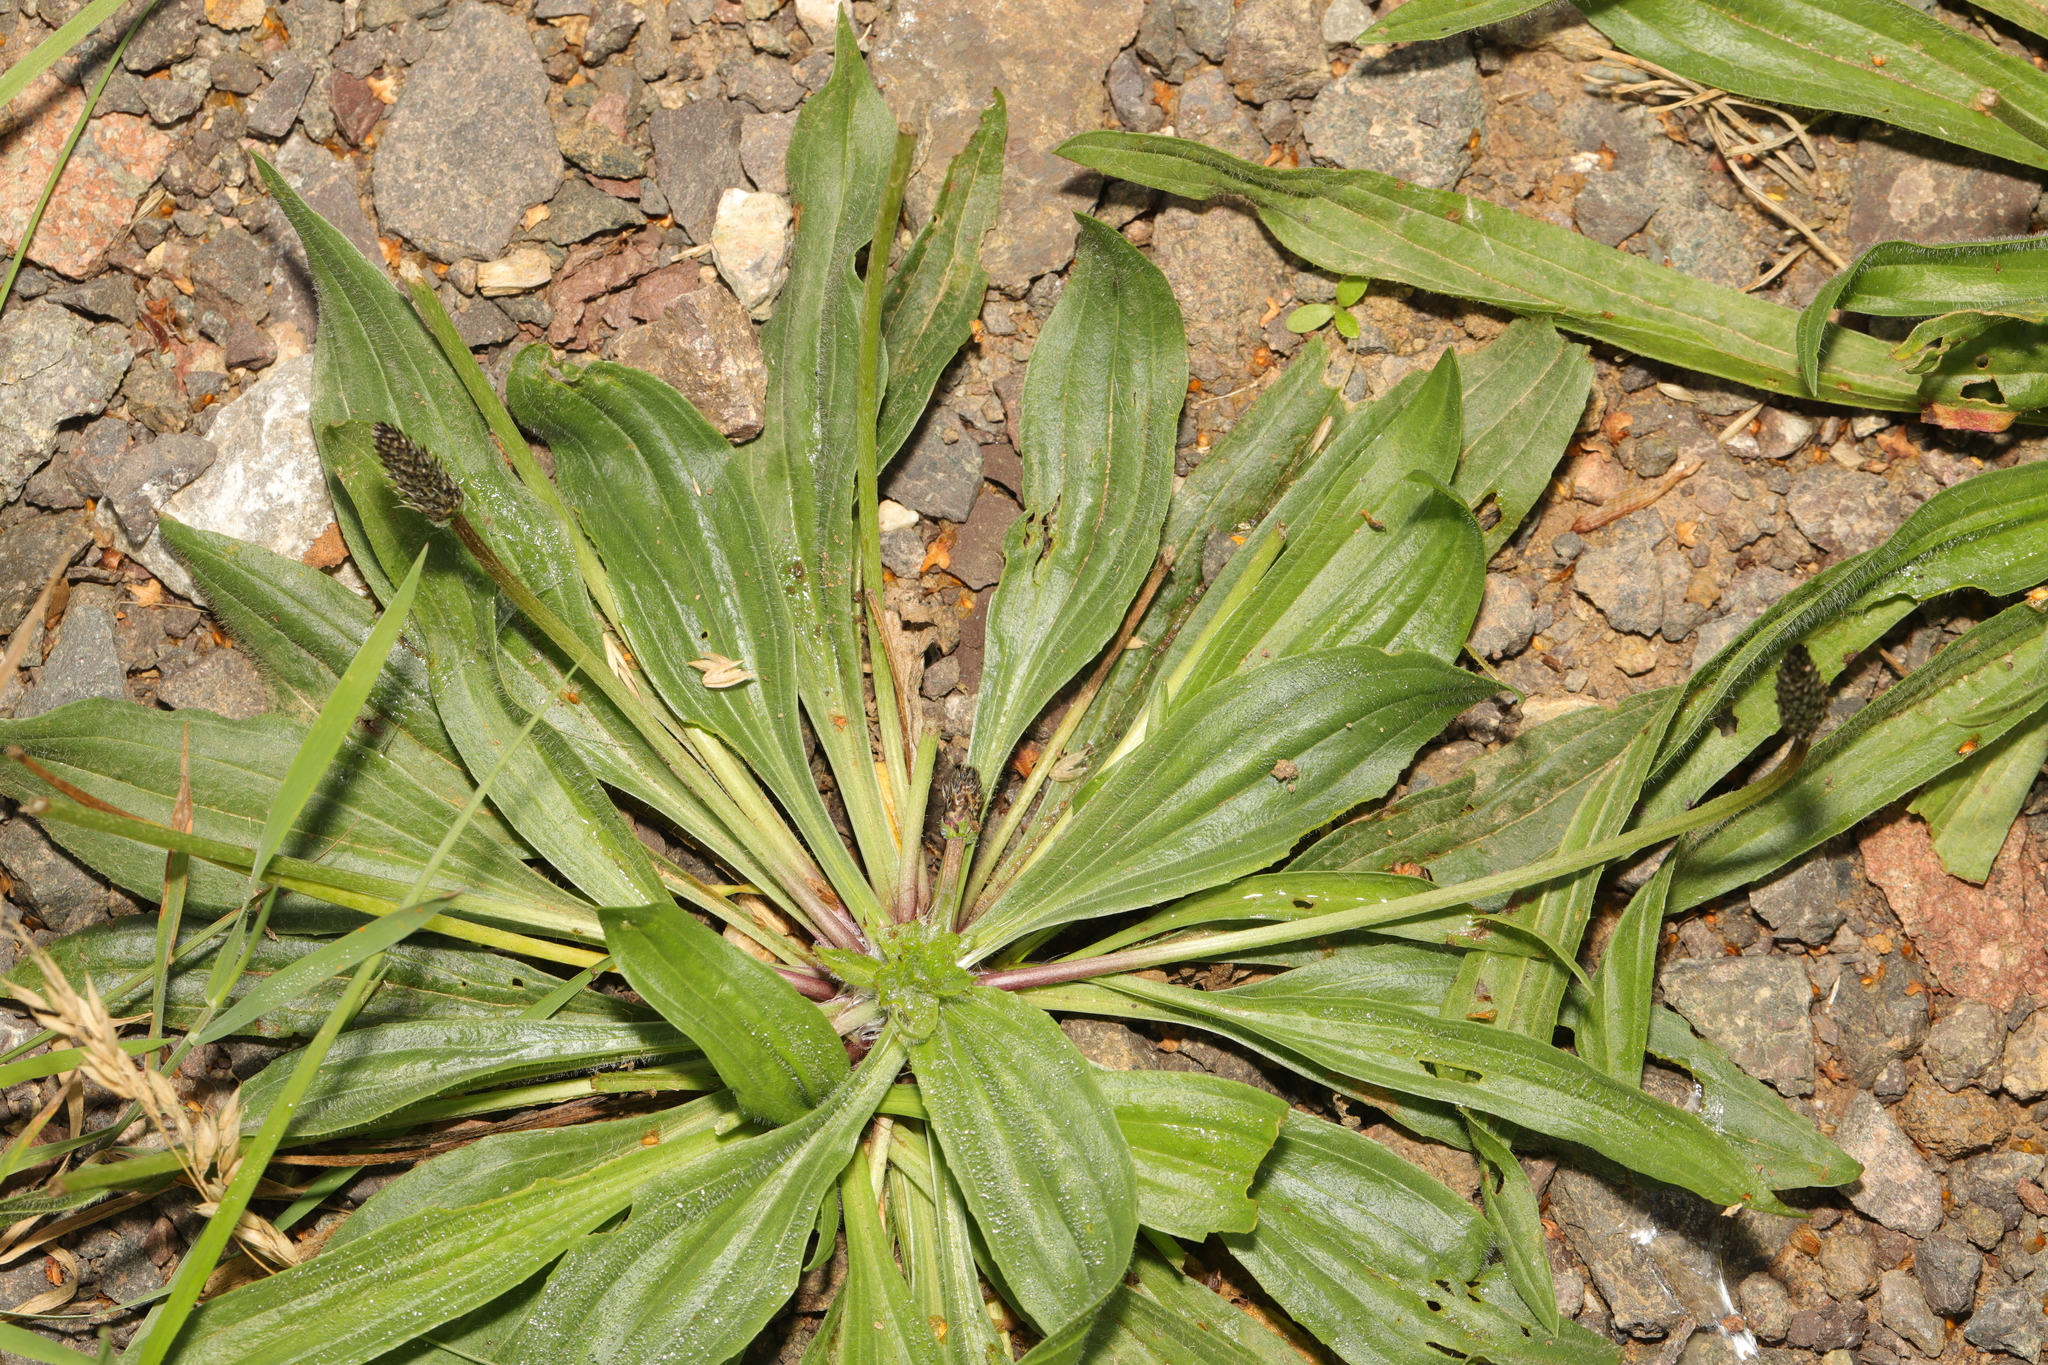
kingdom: Plantae
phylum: Tracheophyta
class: Magnoliopsida
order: Lamiales
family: Plantaginaceae
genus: Plantago
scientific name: Plantago lanceolata
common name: Ribwort plantain
